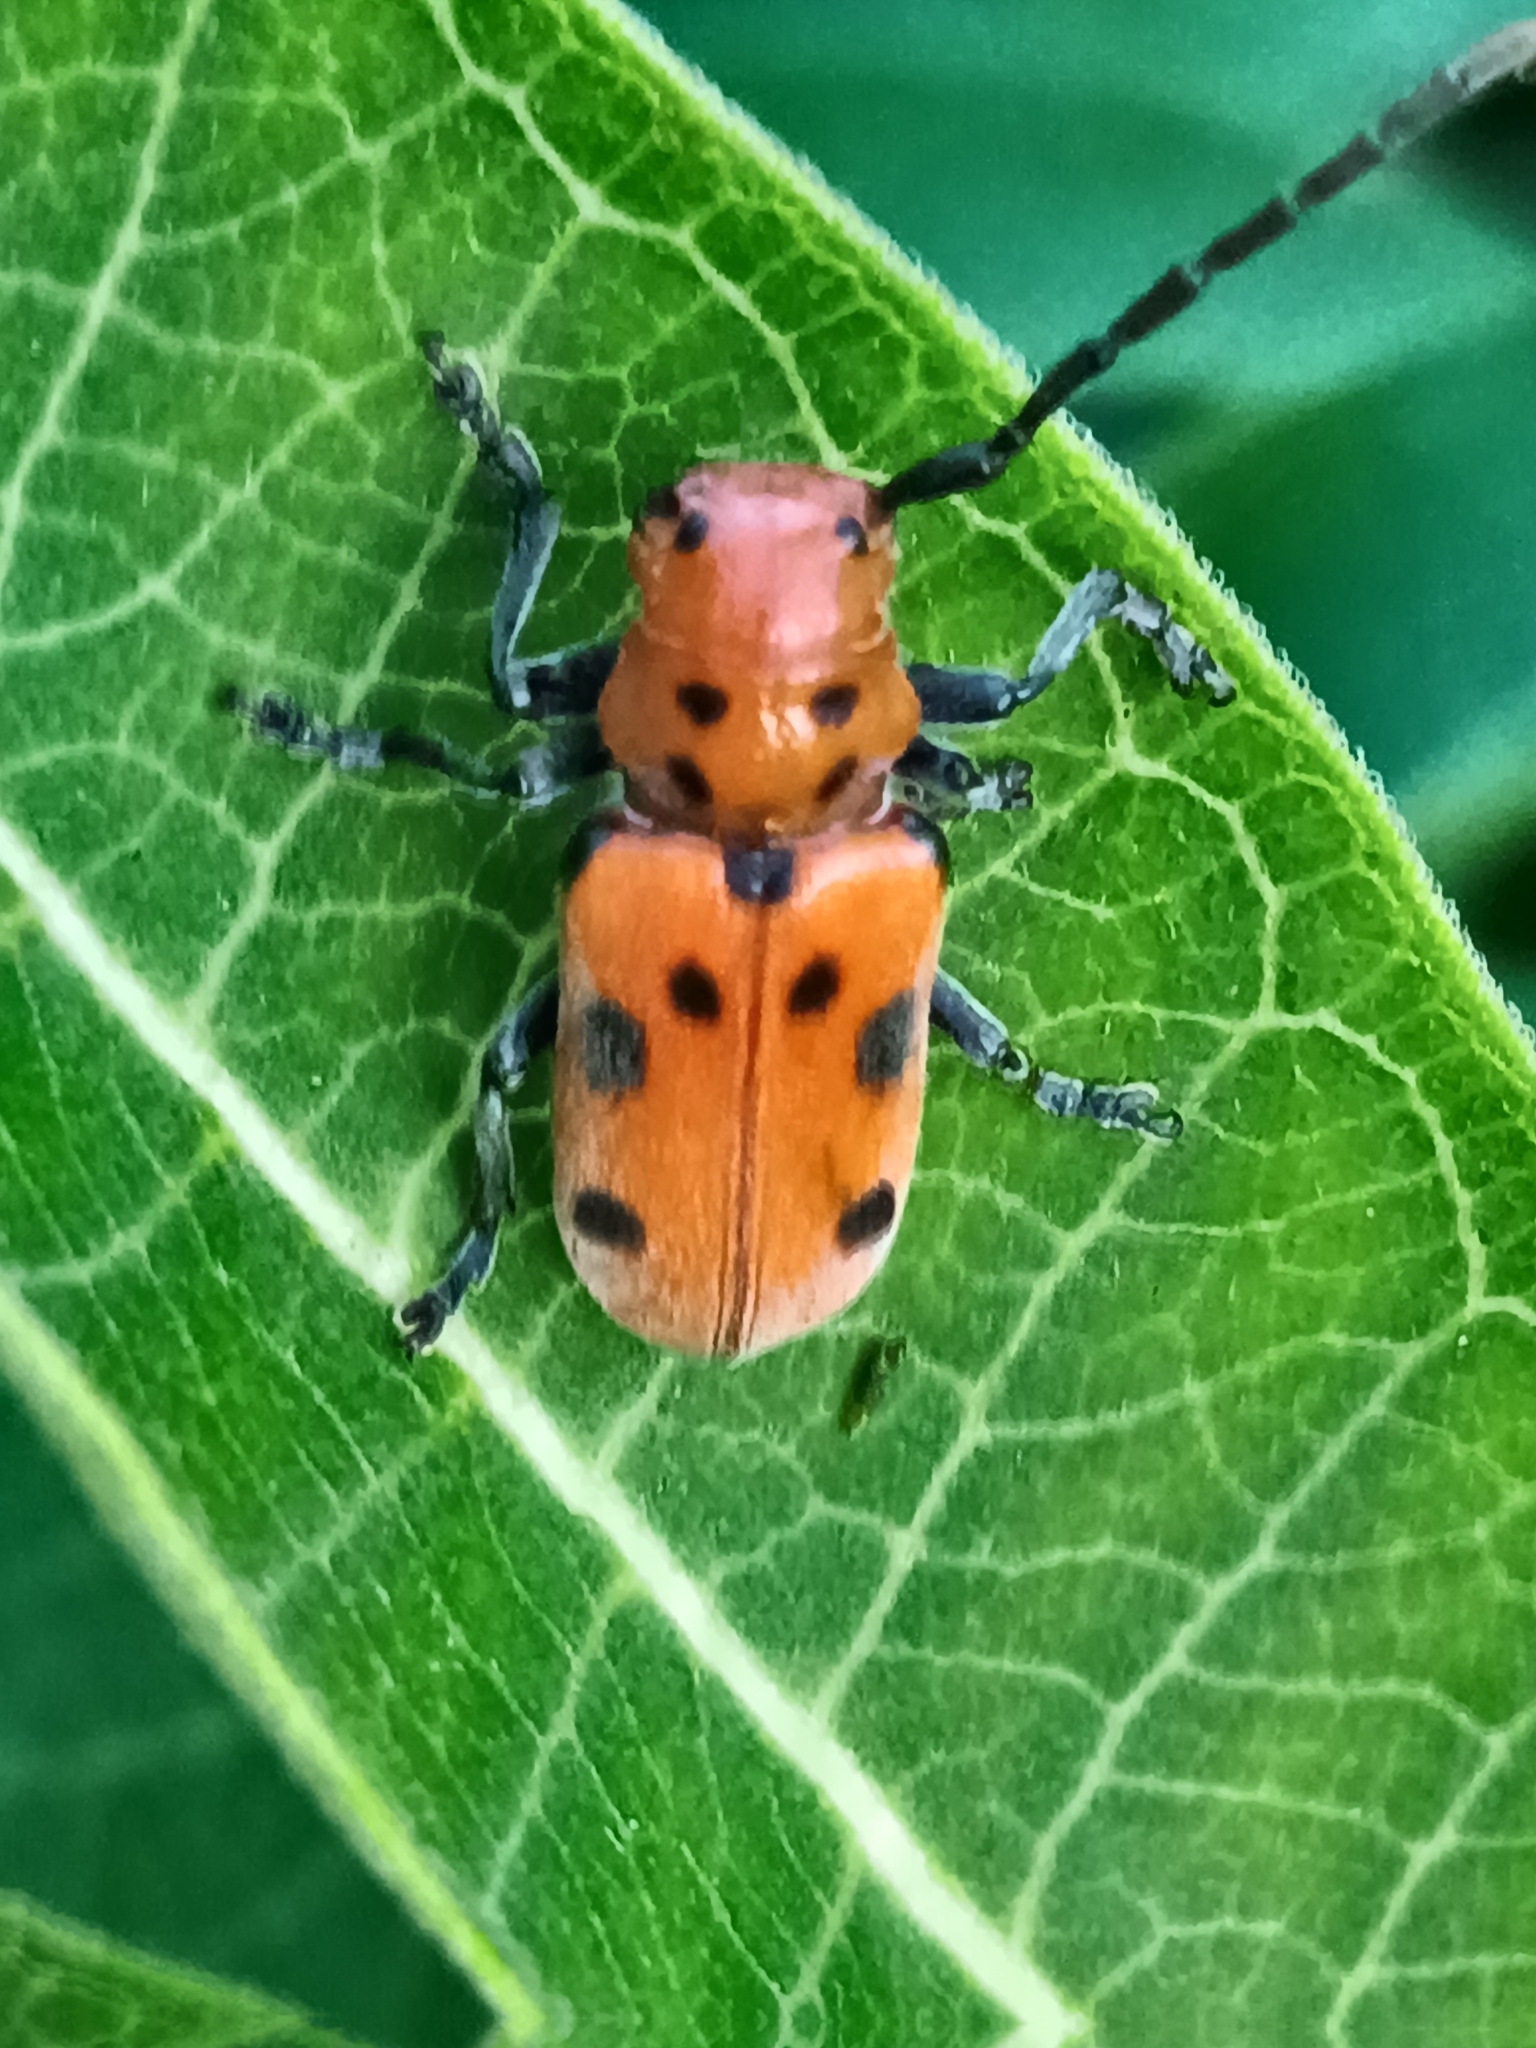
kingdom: Animalia
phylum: Arthropoda
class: Insecta
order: Coleoptera
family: Cerambycidae
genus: Tetraopes
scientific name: Tetraopes tetrophthalmus
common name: Red milkweed beetle
